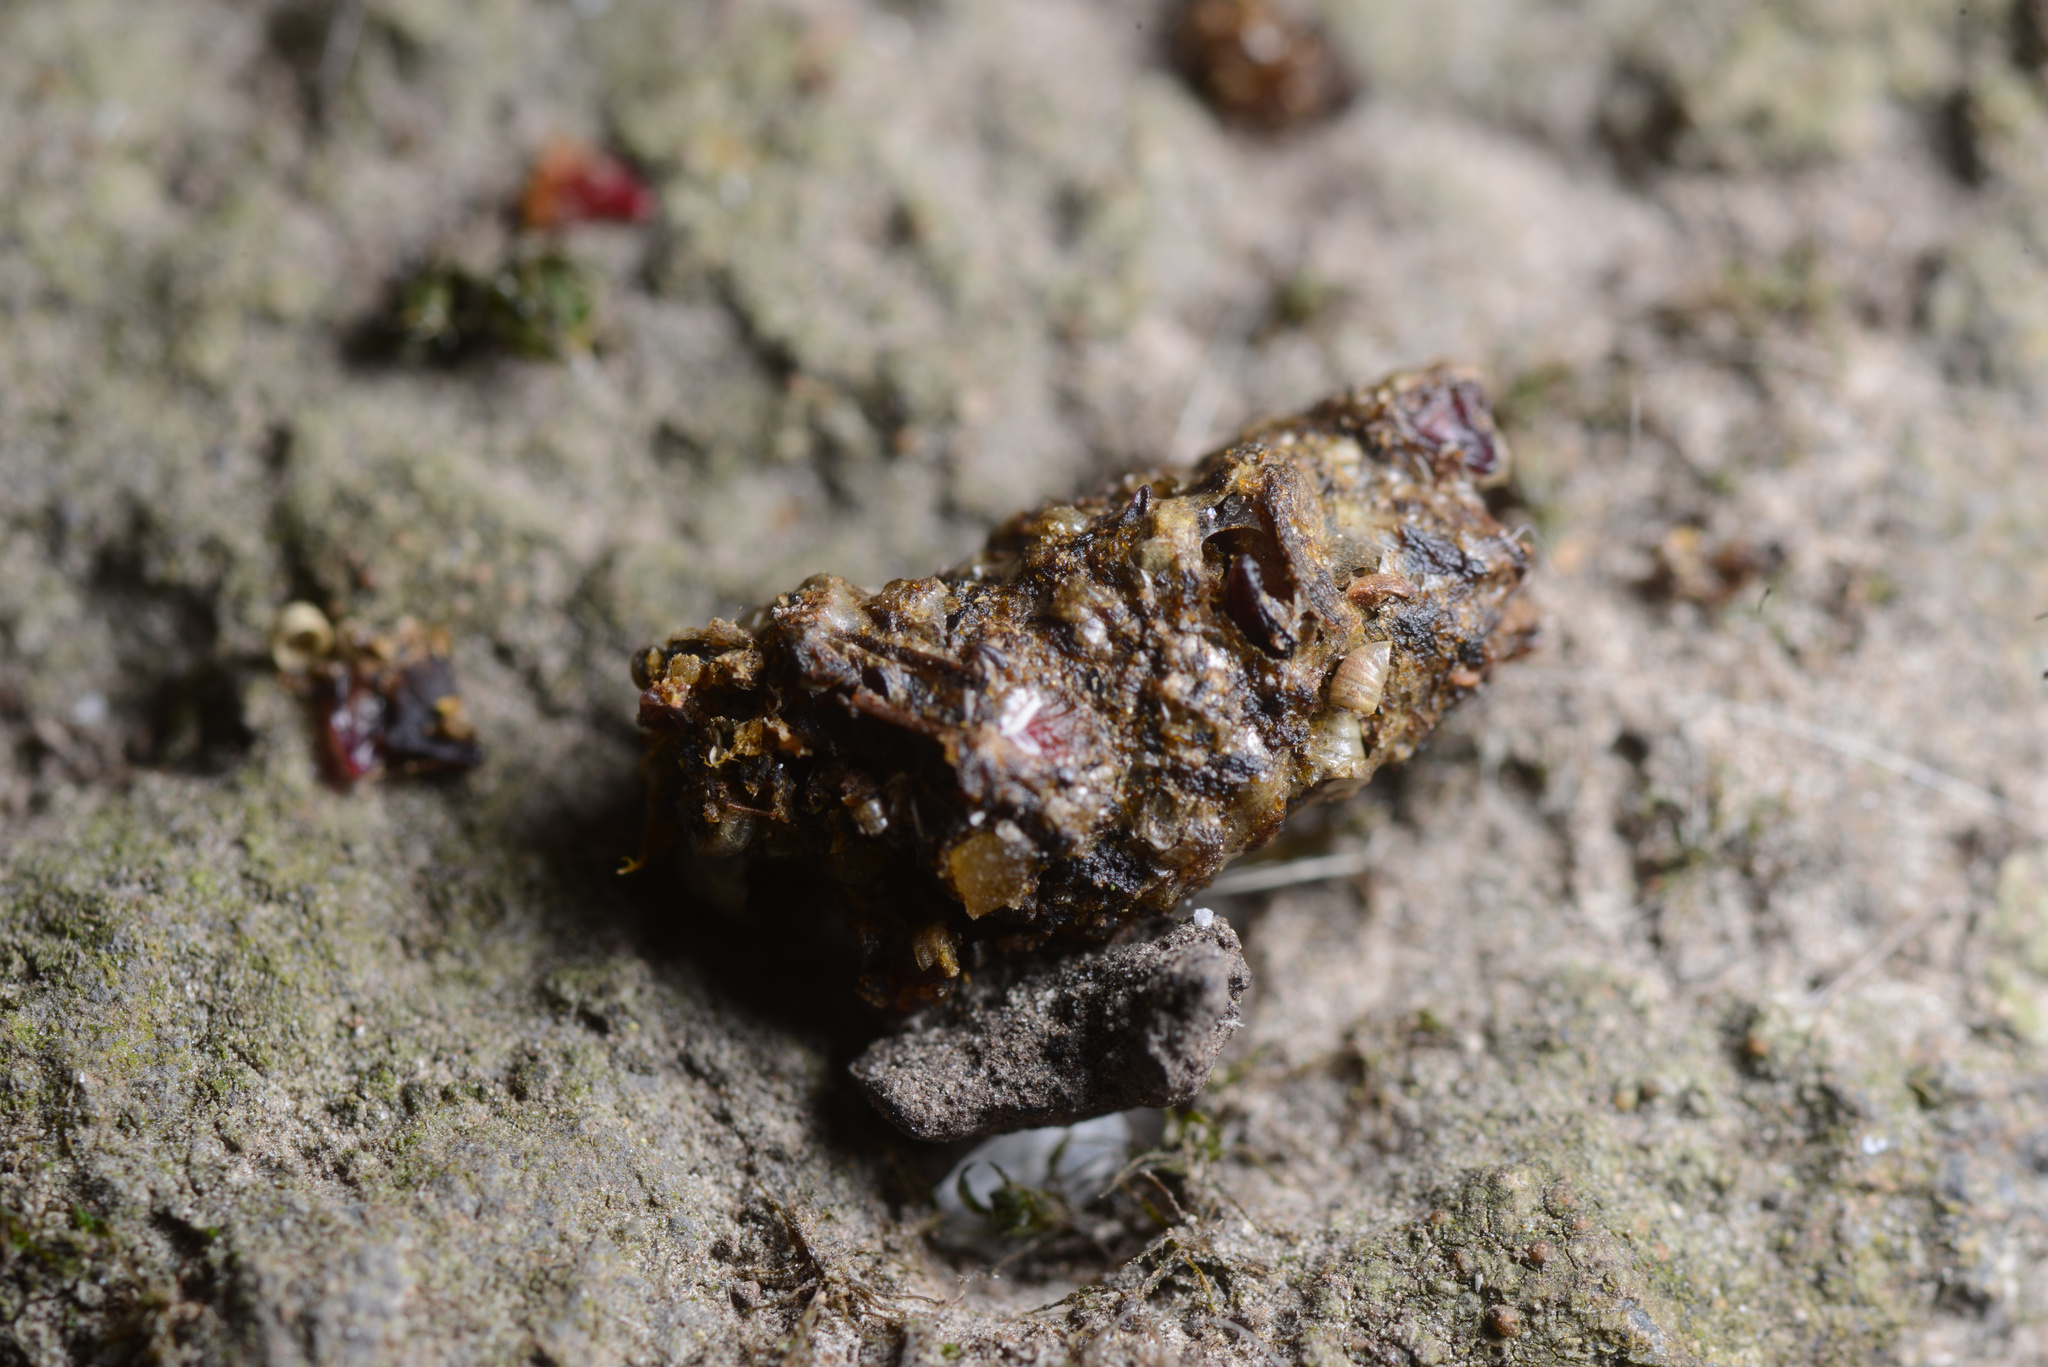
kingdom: Animalia
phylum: Chordata
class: Mammalia
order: Erinaceomorpha
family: Erinaceidae
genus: Erinaceus
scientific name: Erinaceus europaeus
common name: West european hedgehog
